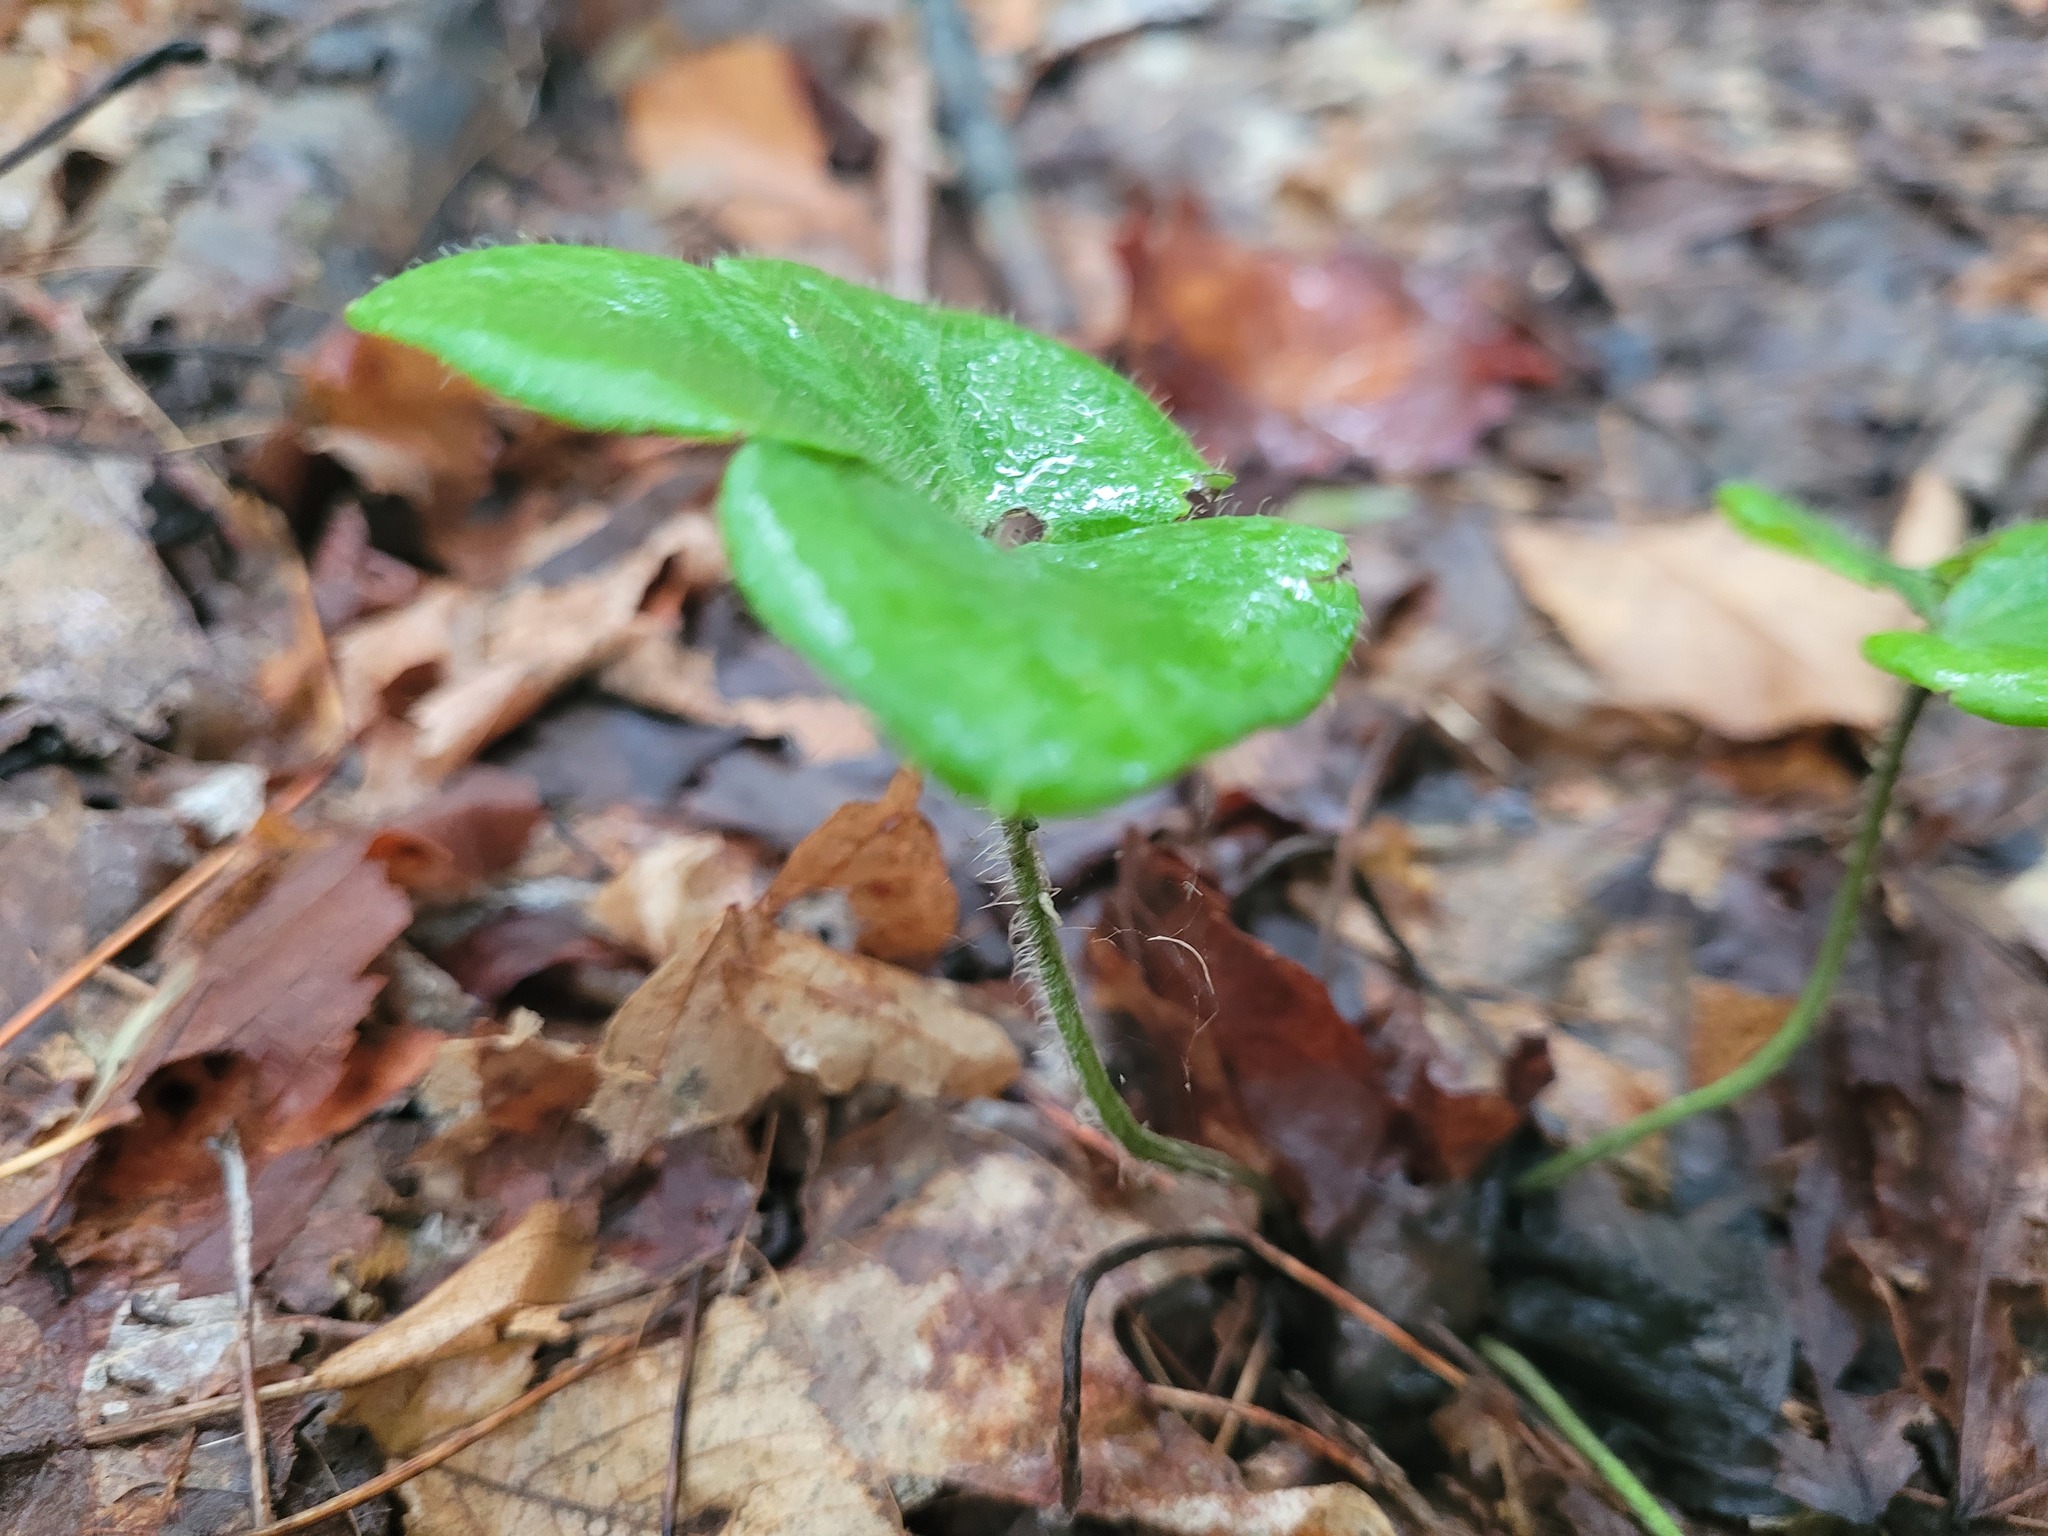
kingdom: Plantae
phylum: Tracheophyta
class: Magnoliopsida
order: Ranunculales
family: Ranunculaceae
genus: Hepatica
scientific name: Hepatica americana
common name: American hepatica
